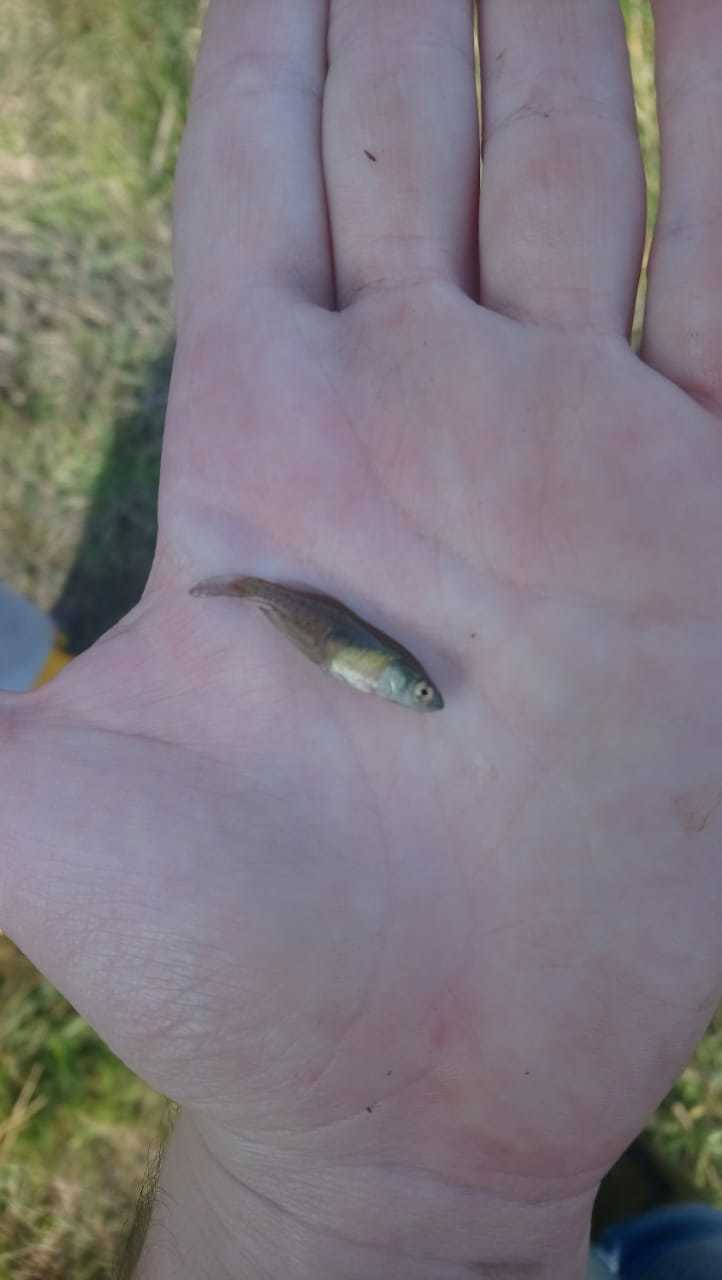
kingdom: Animalia
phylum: Chordata
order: Cyprinodontiformes
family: Rivulidae
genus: Austrolebias
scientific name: Austrolebias bellottii
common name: Argentine pearlfish
